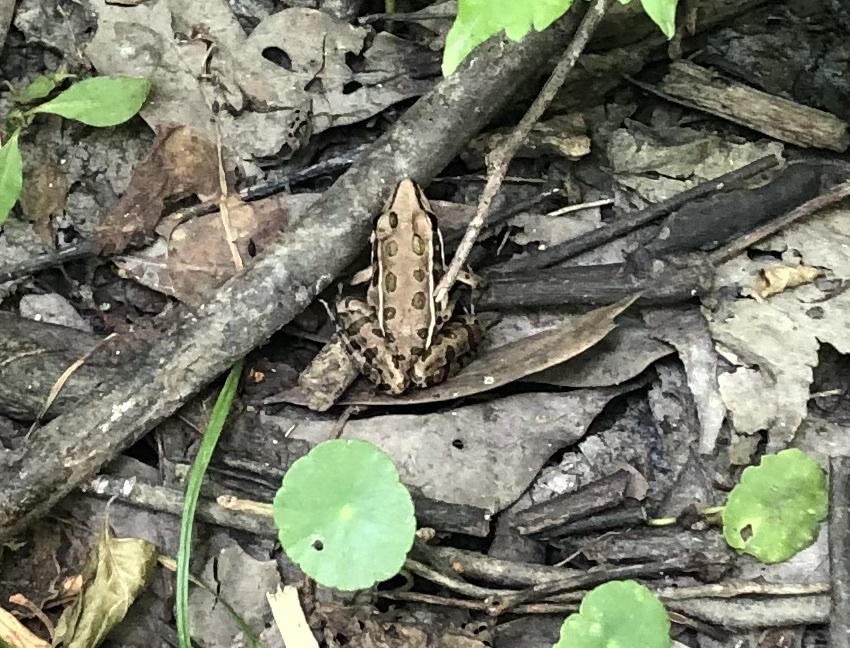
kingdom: Animalia
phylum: Chordata
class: Amphibia
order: Anura
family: Ranidae
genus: Lithobates
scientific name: Lithobates sphenocephalus
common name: Southern leopard frog
